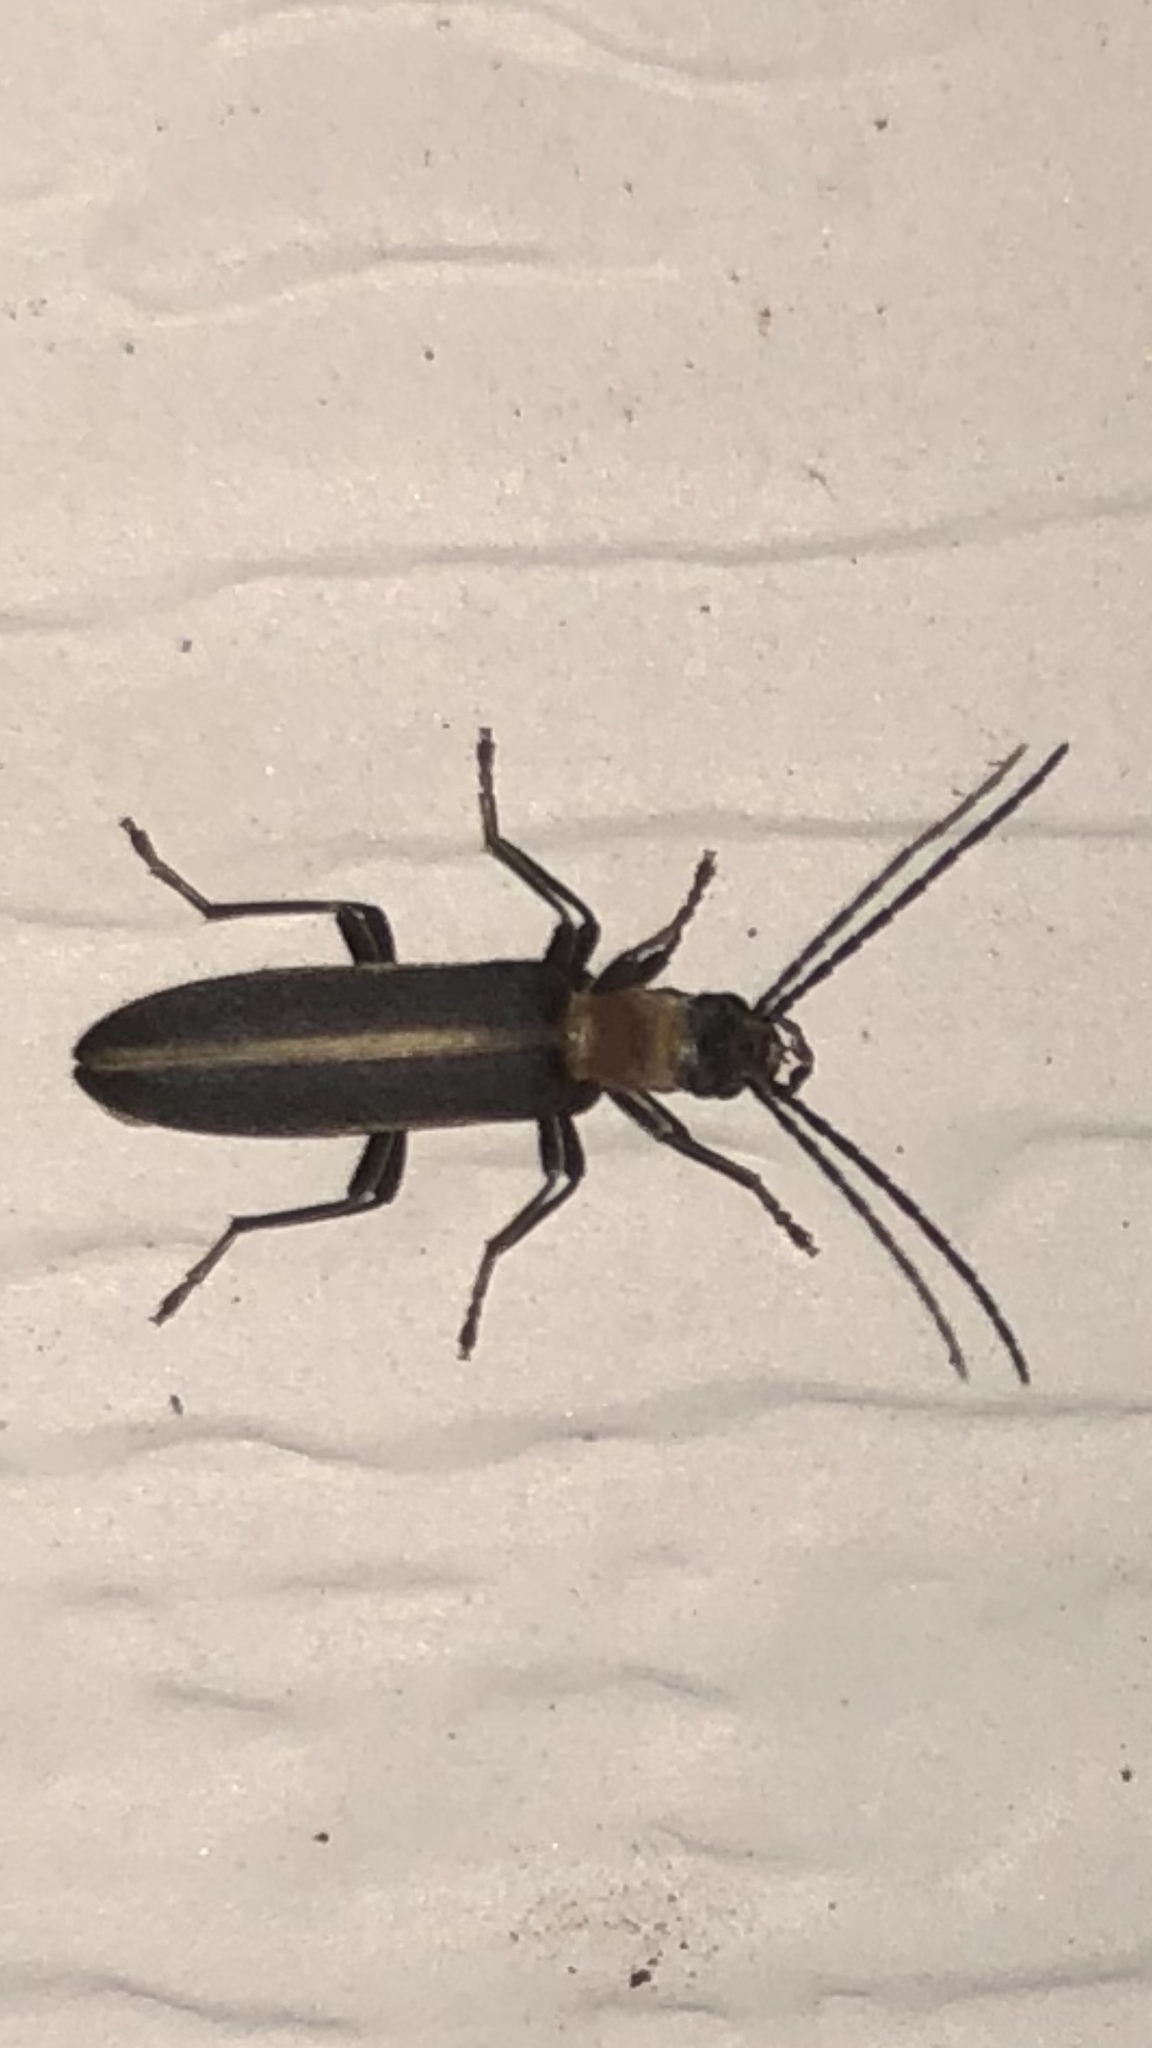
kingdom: Animalia
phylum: Arthropoda
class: Insecta
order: Coleoptera
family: Oedemeridae
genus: Oxycopis
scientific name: Oxycopis mimetica
